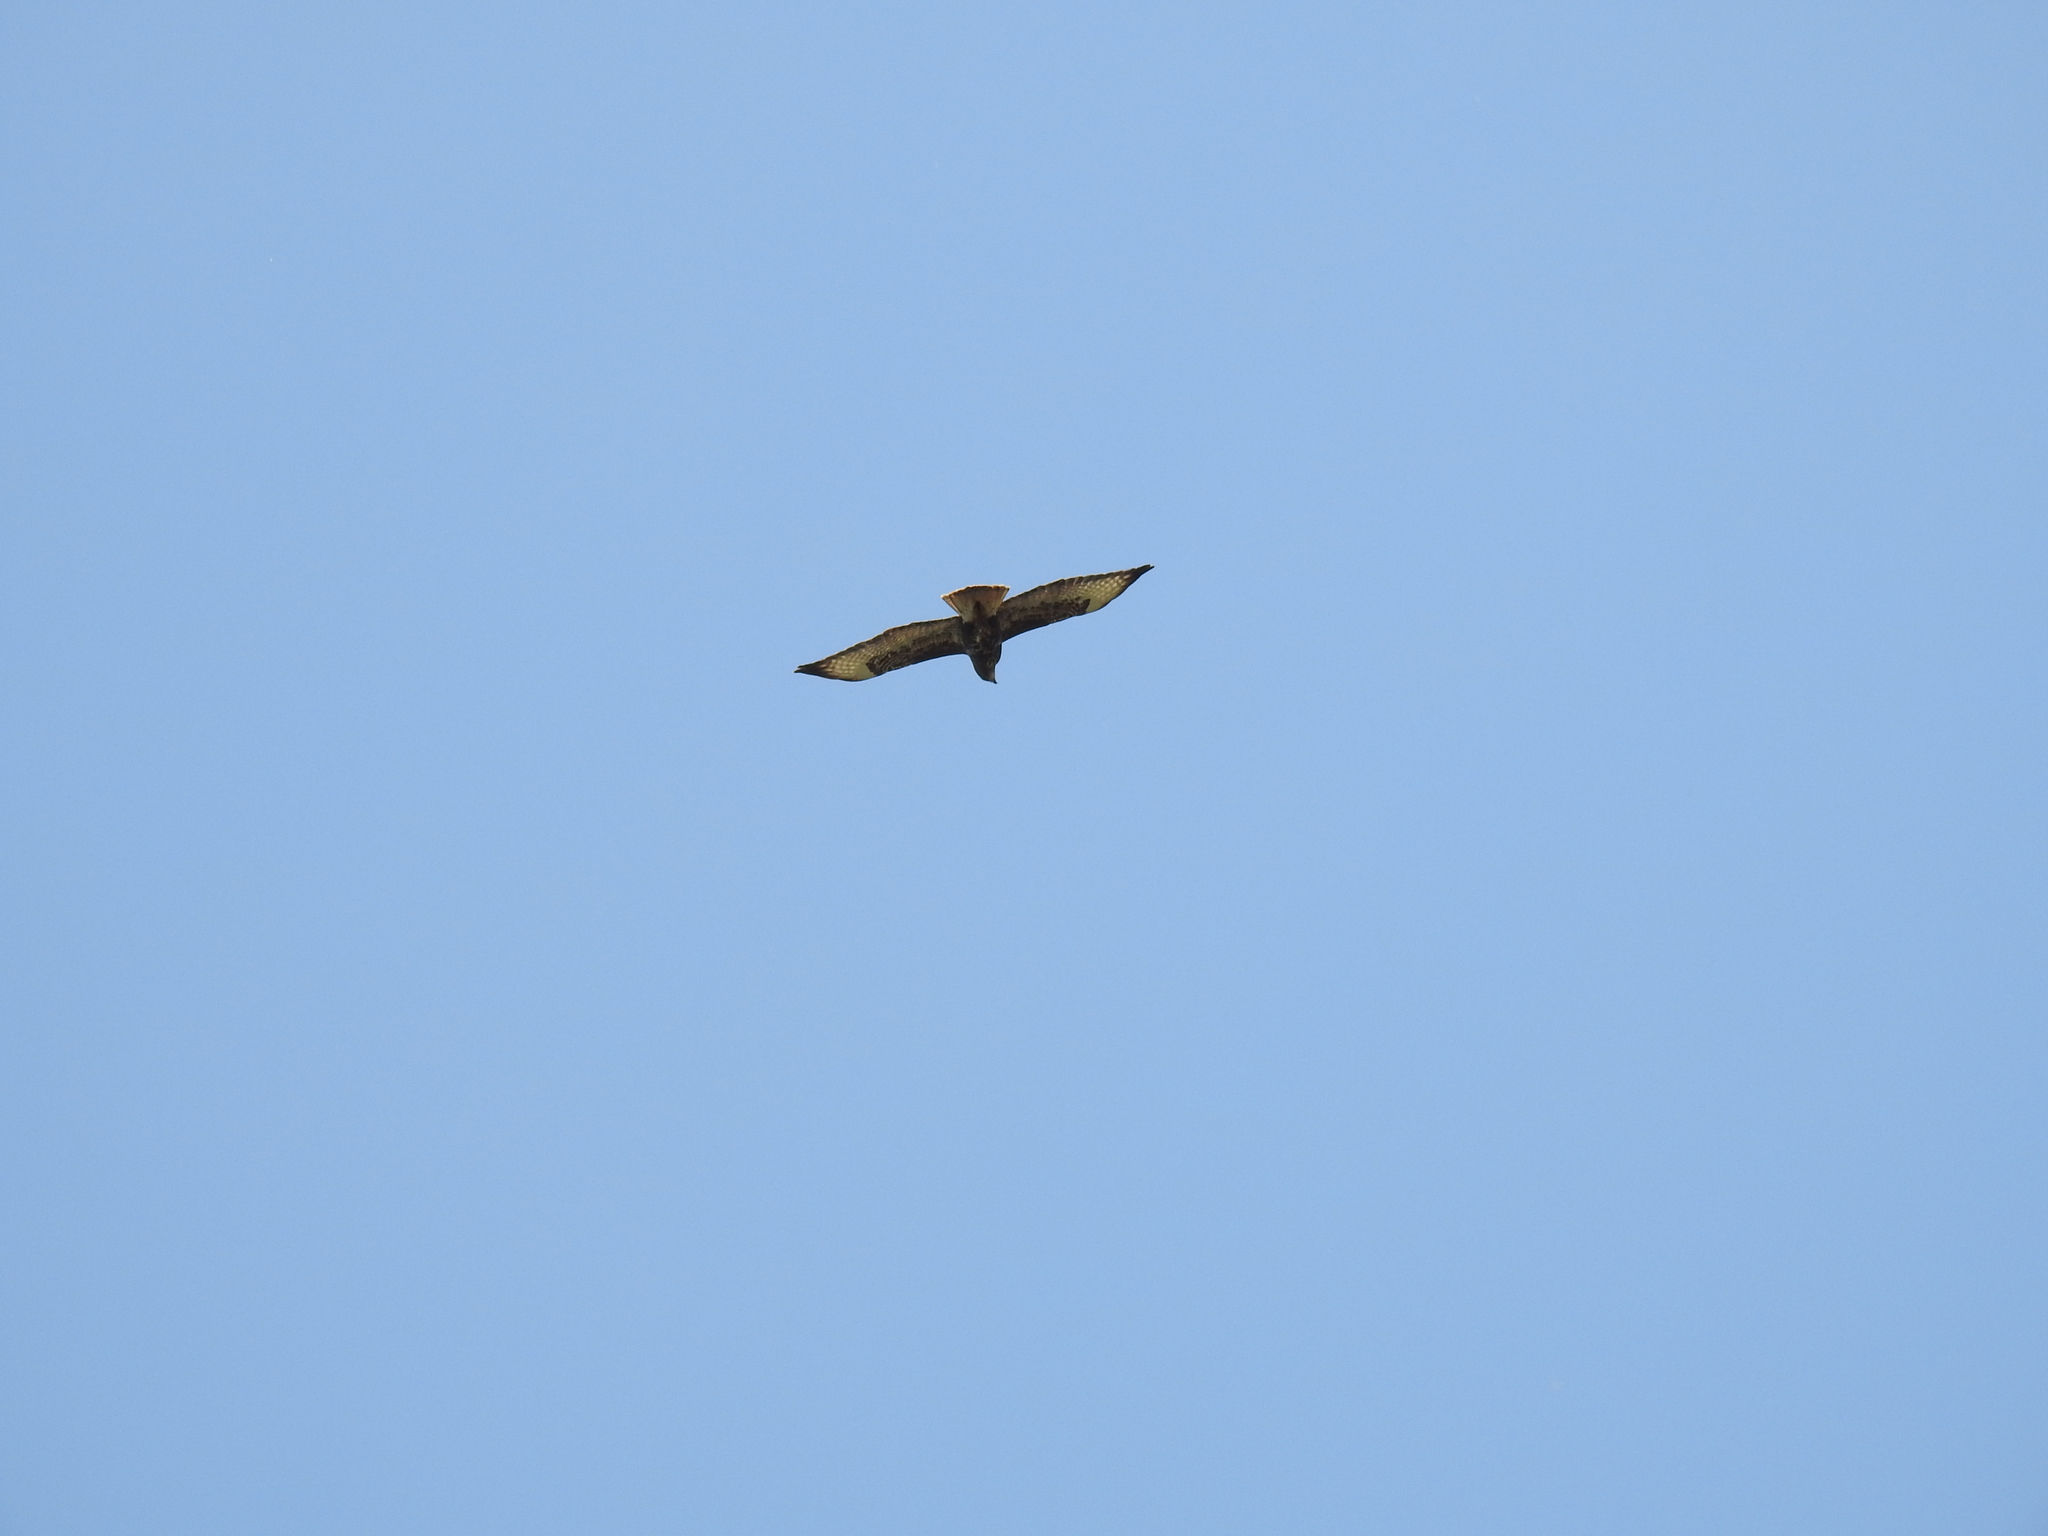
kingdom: Animalia
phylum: Chordata
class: Aves
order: Accipitriformes
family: Accipitridae
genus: Buteo
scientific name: Buteo buteo
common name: Common buzzard
